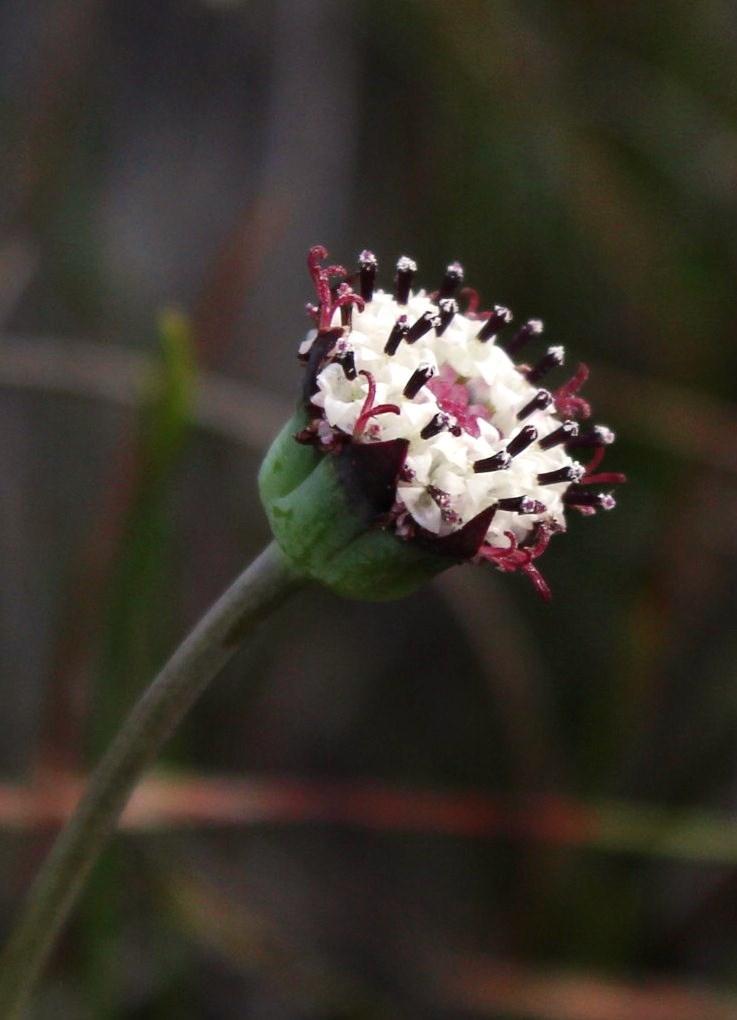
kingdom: Plantae
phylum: Tracheophyta
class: Magnoliopsida
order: Asterales
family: Asteraceae
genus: Othonna
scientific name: Othonna digitata
